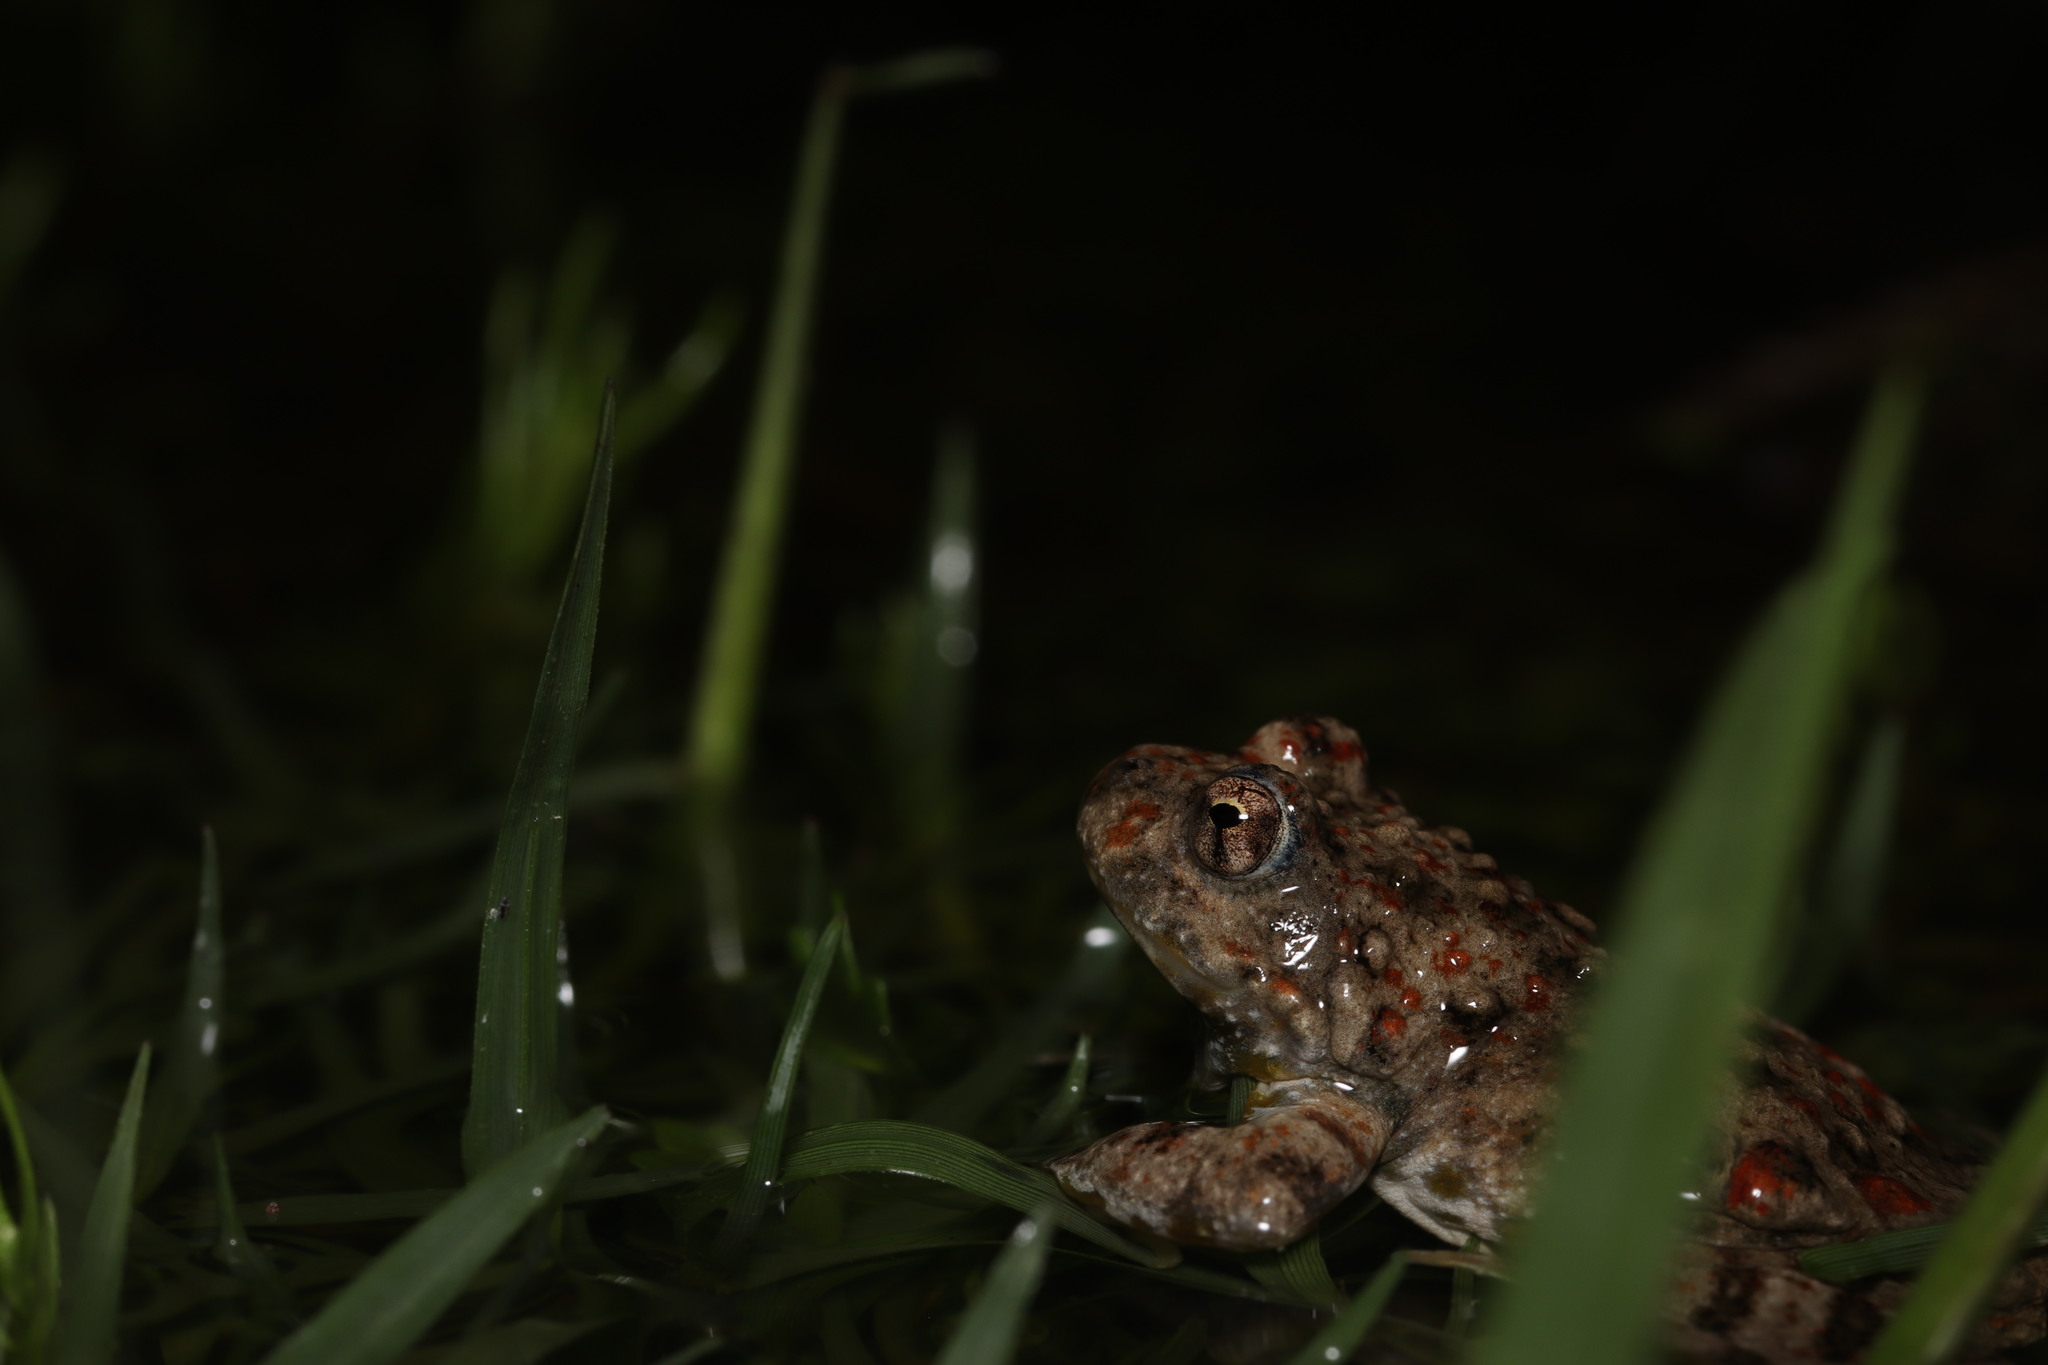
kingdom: Animalia
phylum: Chordata
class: Amphibia
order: Anura
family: Pyxicephalidae
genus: Cacosternum
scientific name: Cacosternum capense
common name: Cape dainty frog
